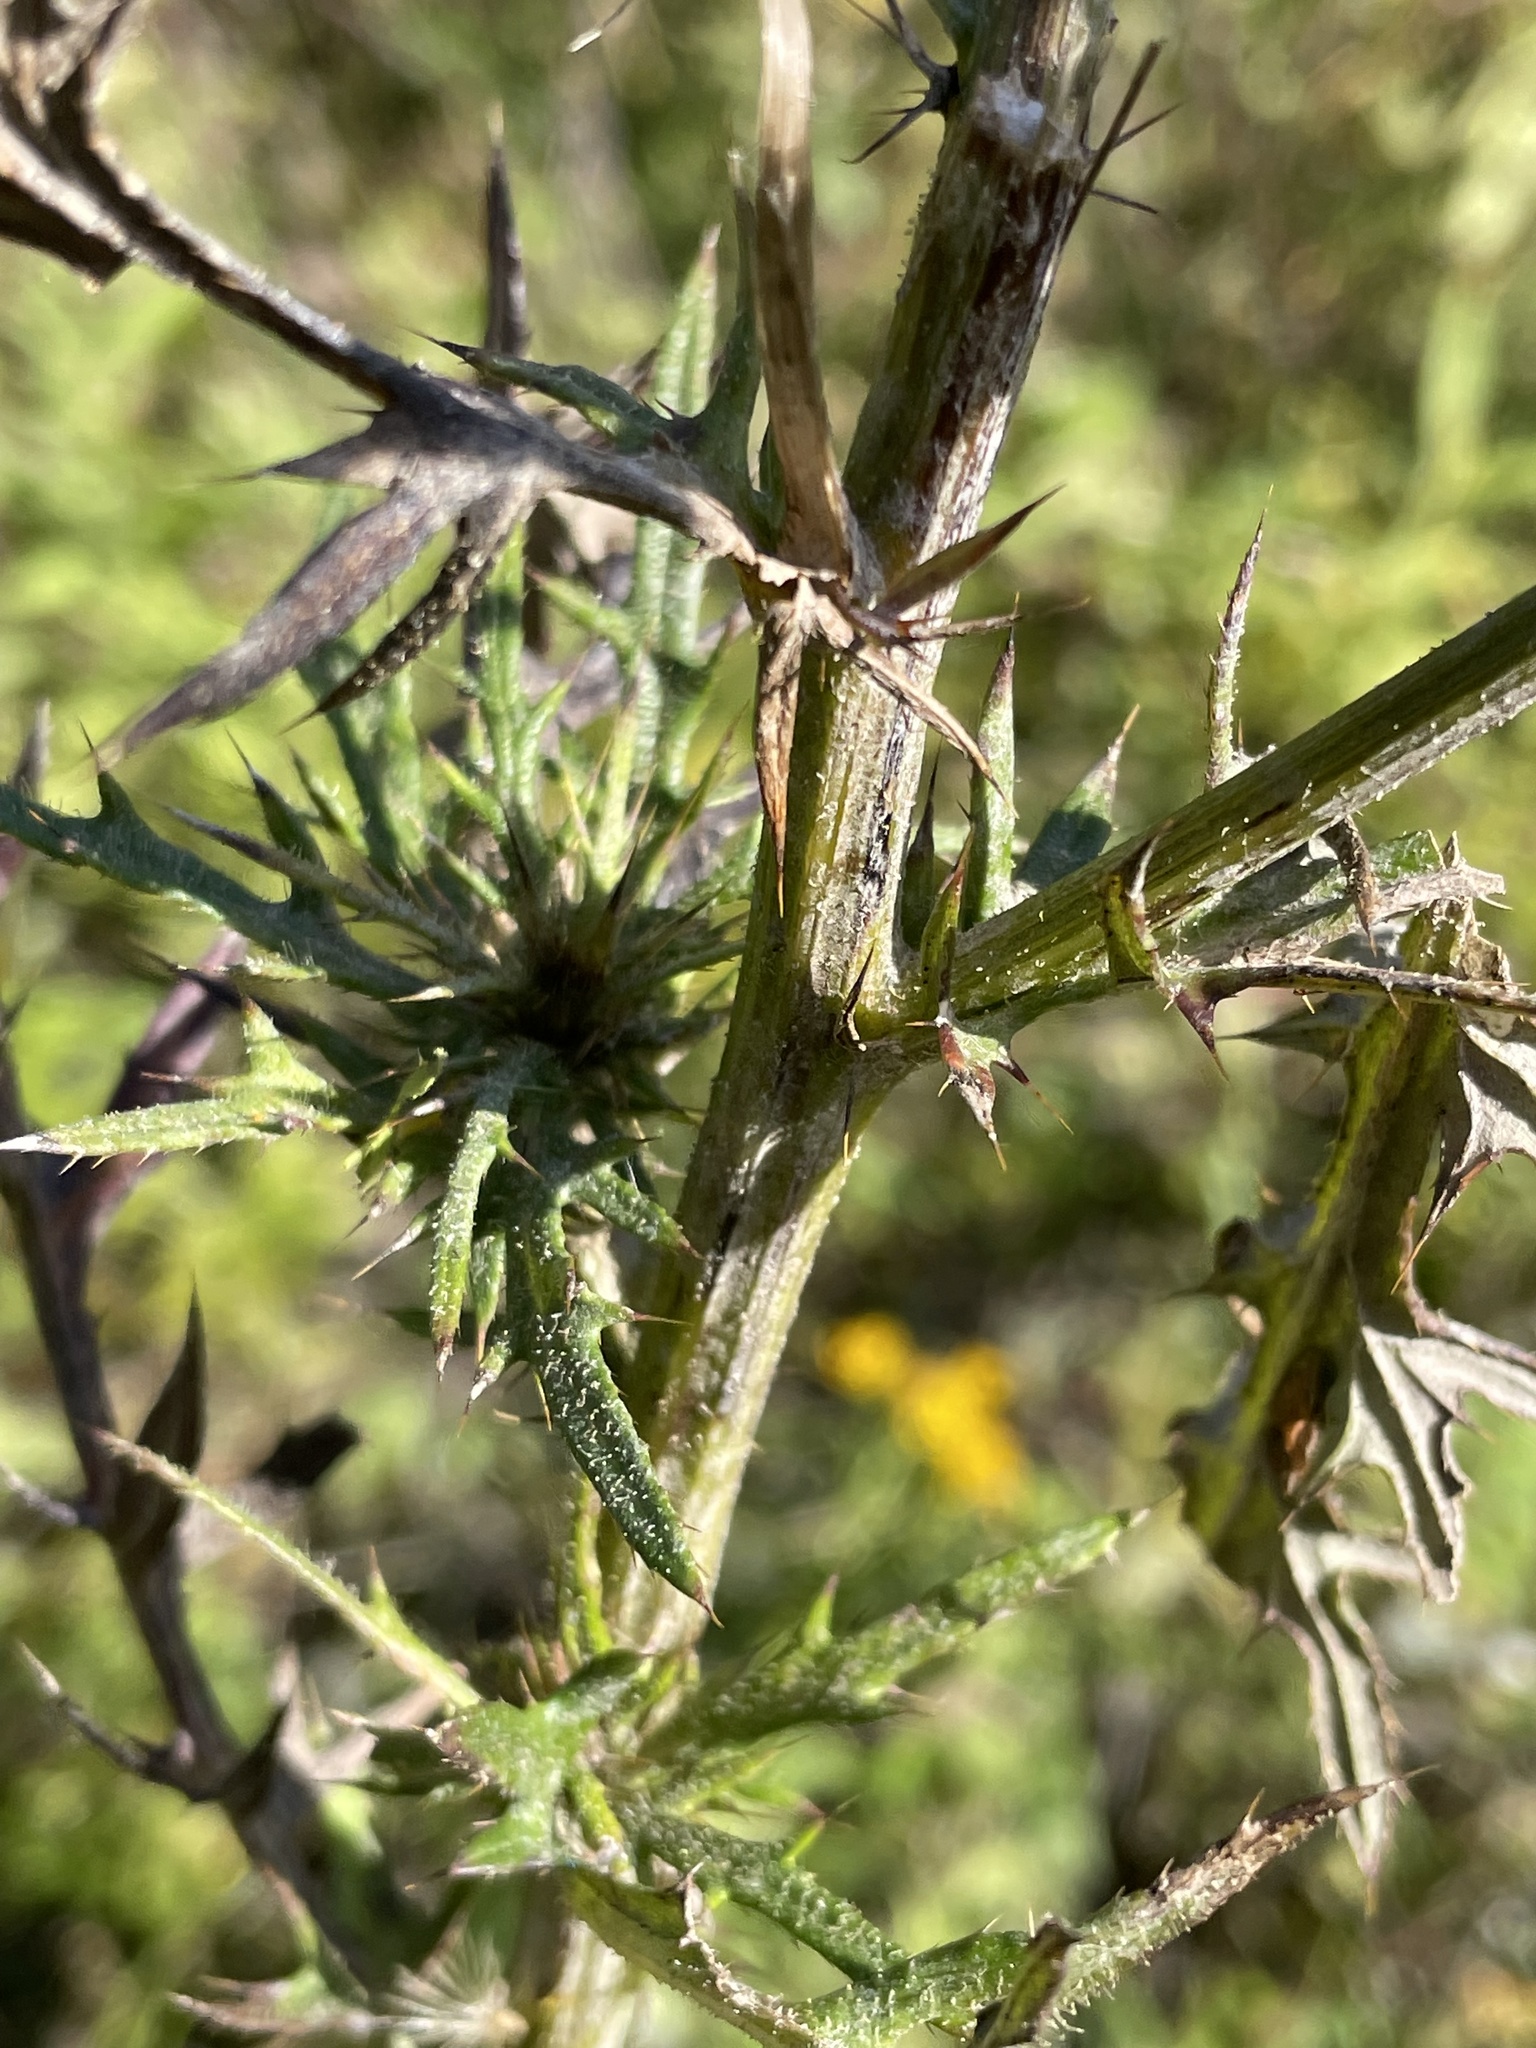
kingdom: Plantae
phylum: Tracheophyta
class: Magnoliopsida
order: Asterales
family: Asteraceae
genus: Cirsium
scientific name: Cirsium discolor
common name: Field thistle
